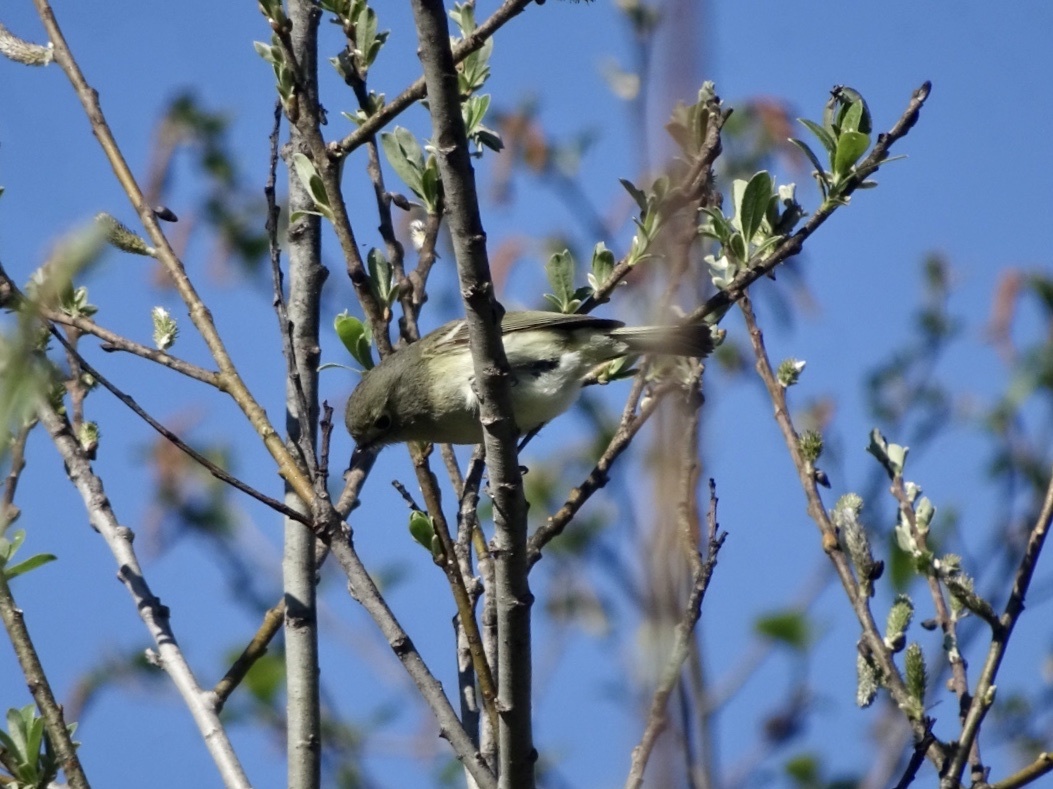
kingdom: Animalia
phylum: Chordata
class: Aves
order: Passeriformes
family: Vireonidae
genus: Vireo
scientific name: Vireo huttoni
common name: Hutton's vireo
